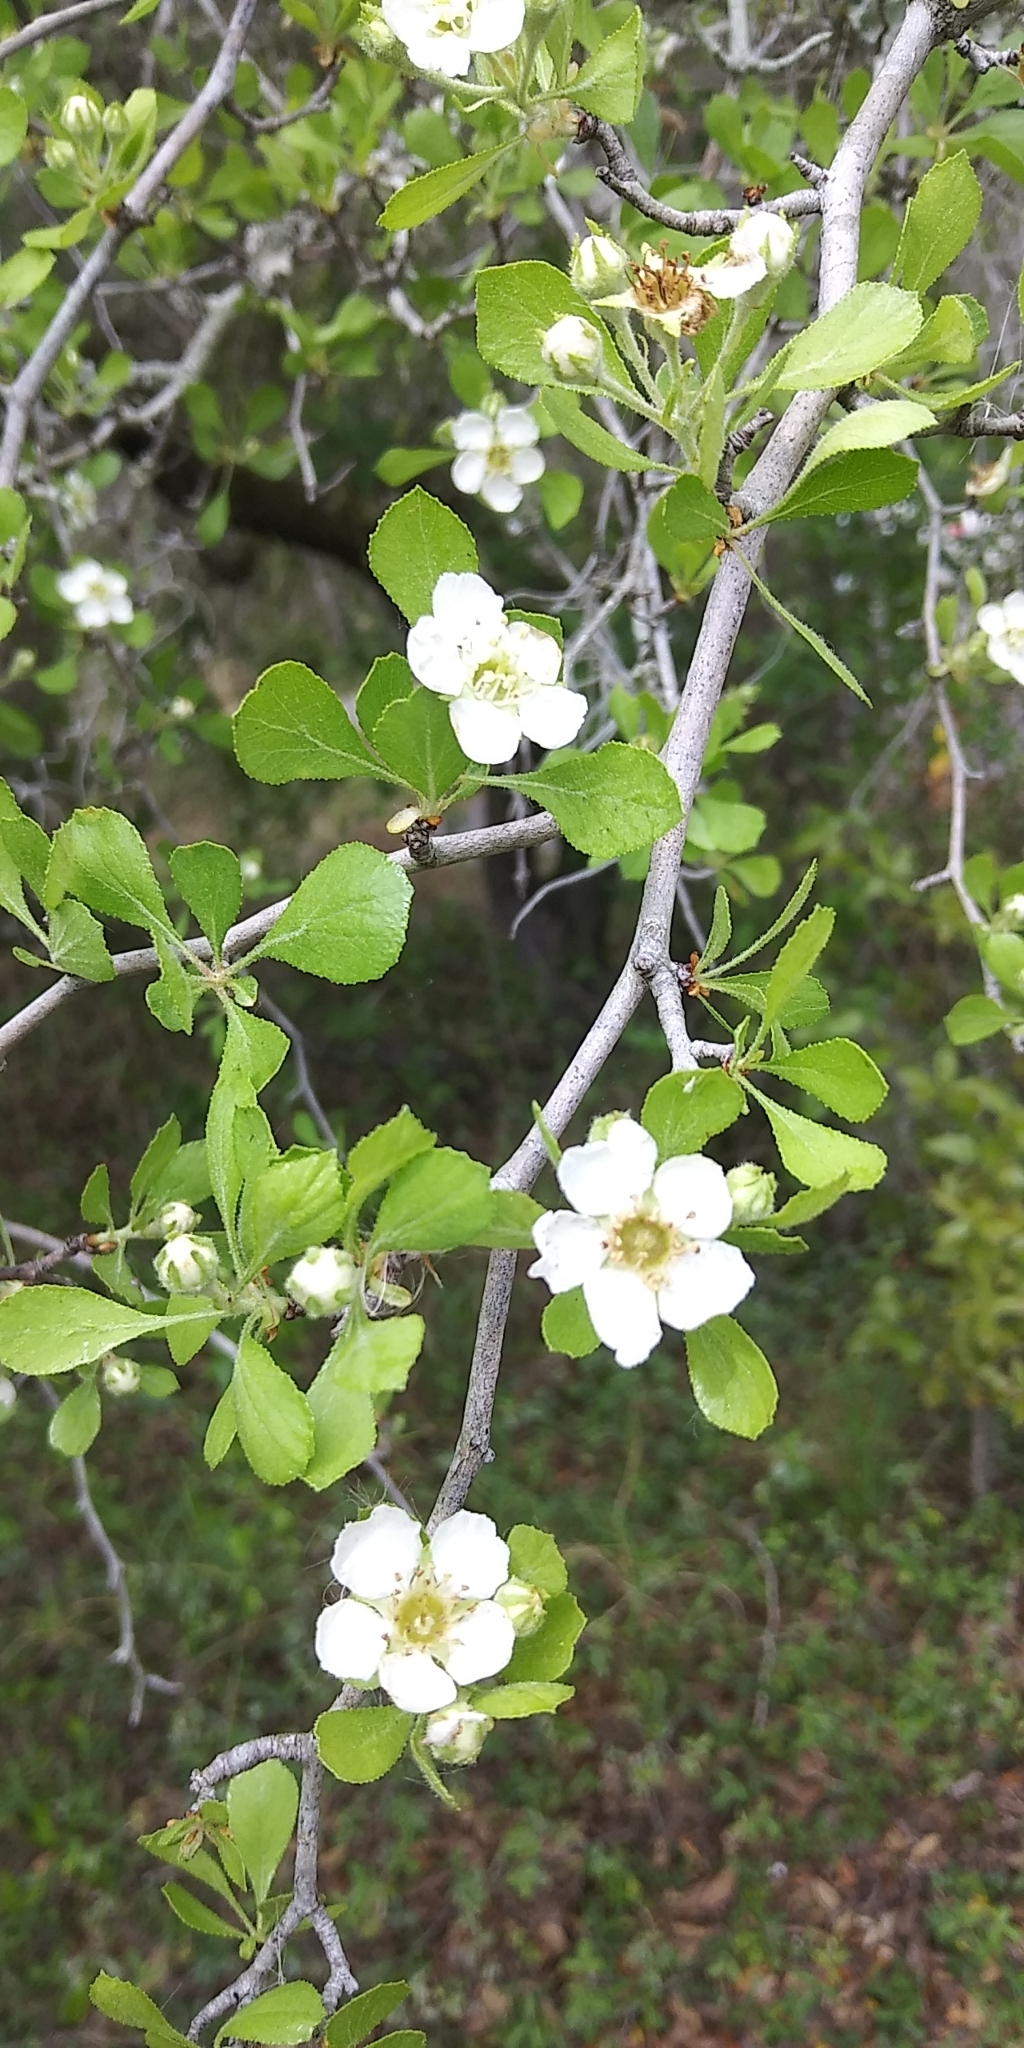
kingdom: Plantae
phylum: Tracheophyta
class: Magnoliopsida
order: Rosales
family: Rosaceae
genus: Crataegus
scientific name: Crataegus flava
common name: Yellow hawthorn
